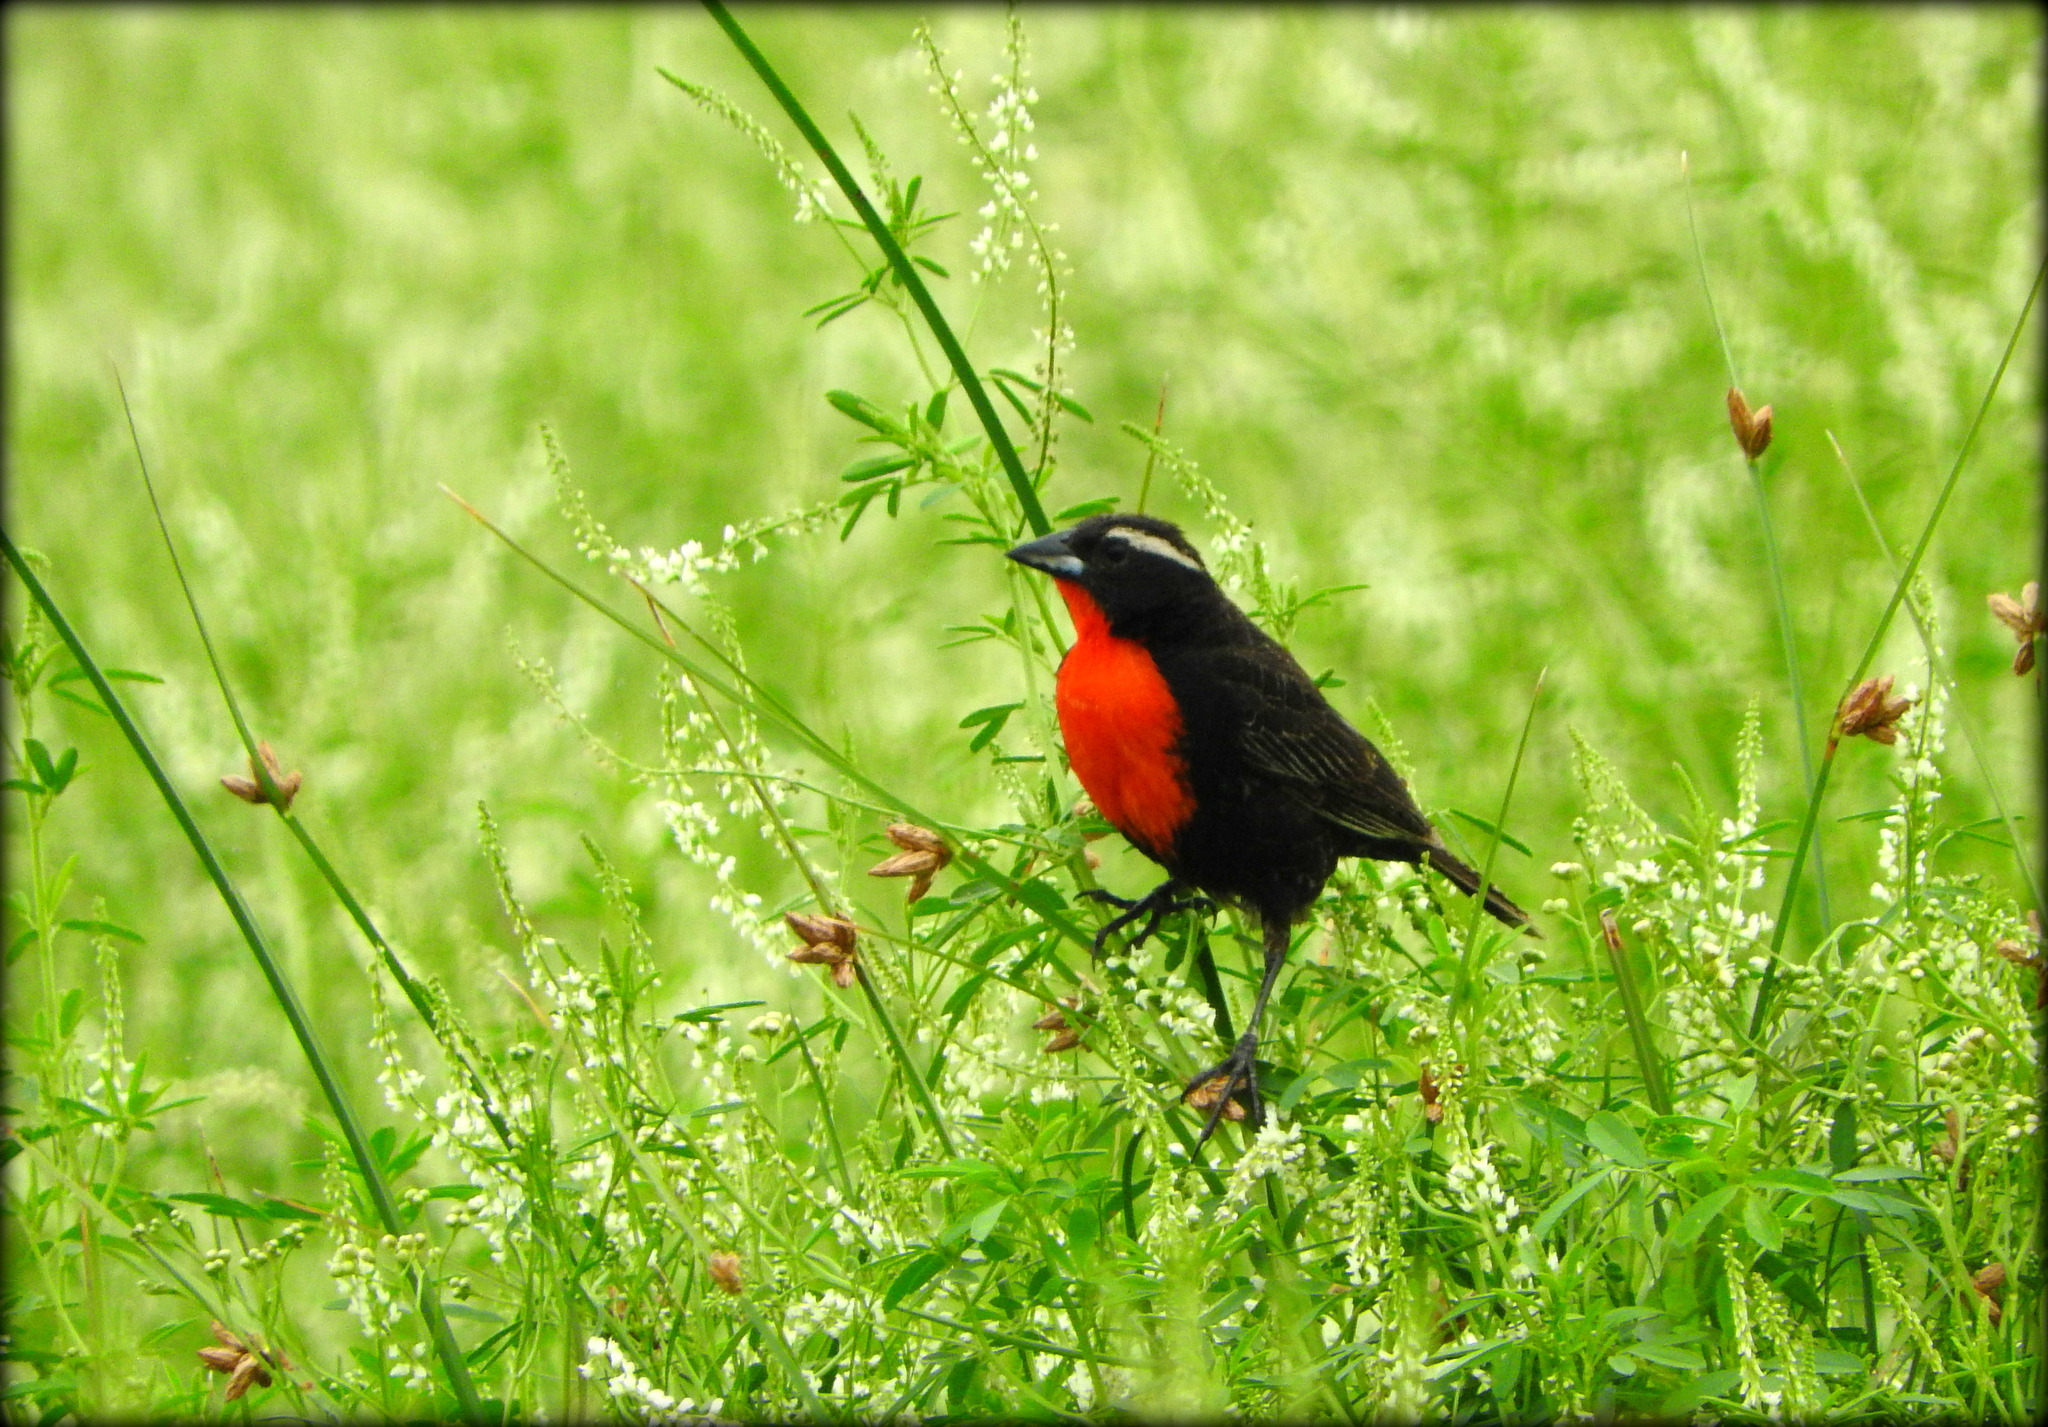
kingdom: Animalia
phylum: Chordata
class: Aves
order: Passeriformes
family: Icteridae
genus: Sturnella
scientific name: Sturnella superciliaris
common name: White-browed blackbird
